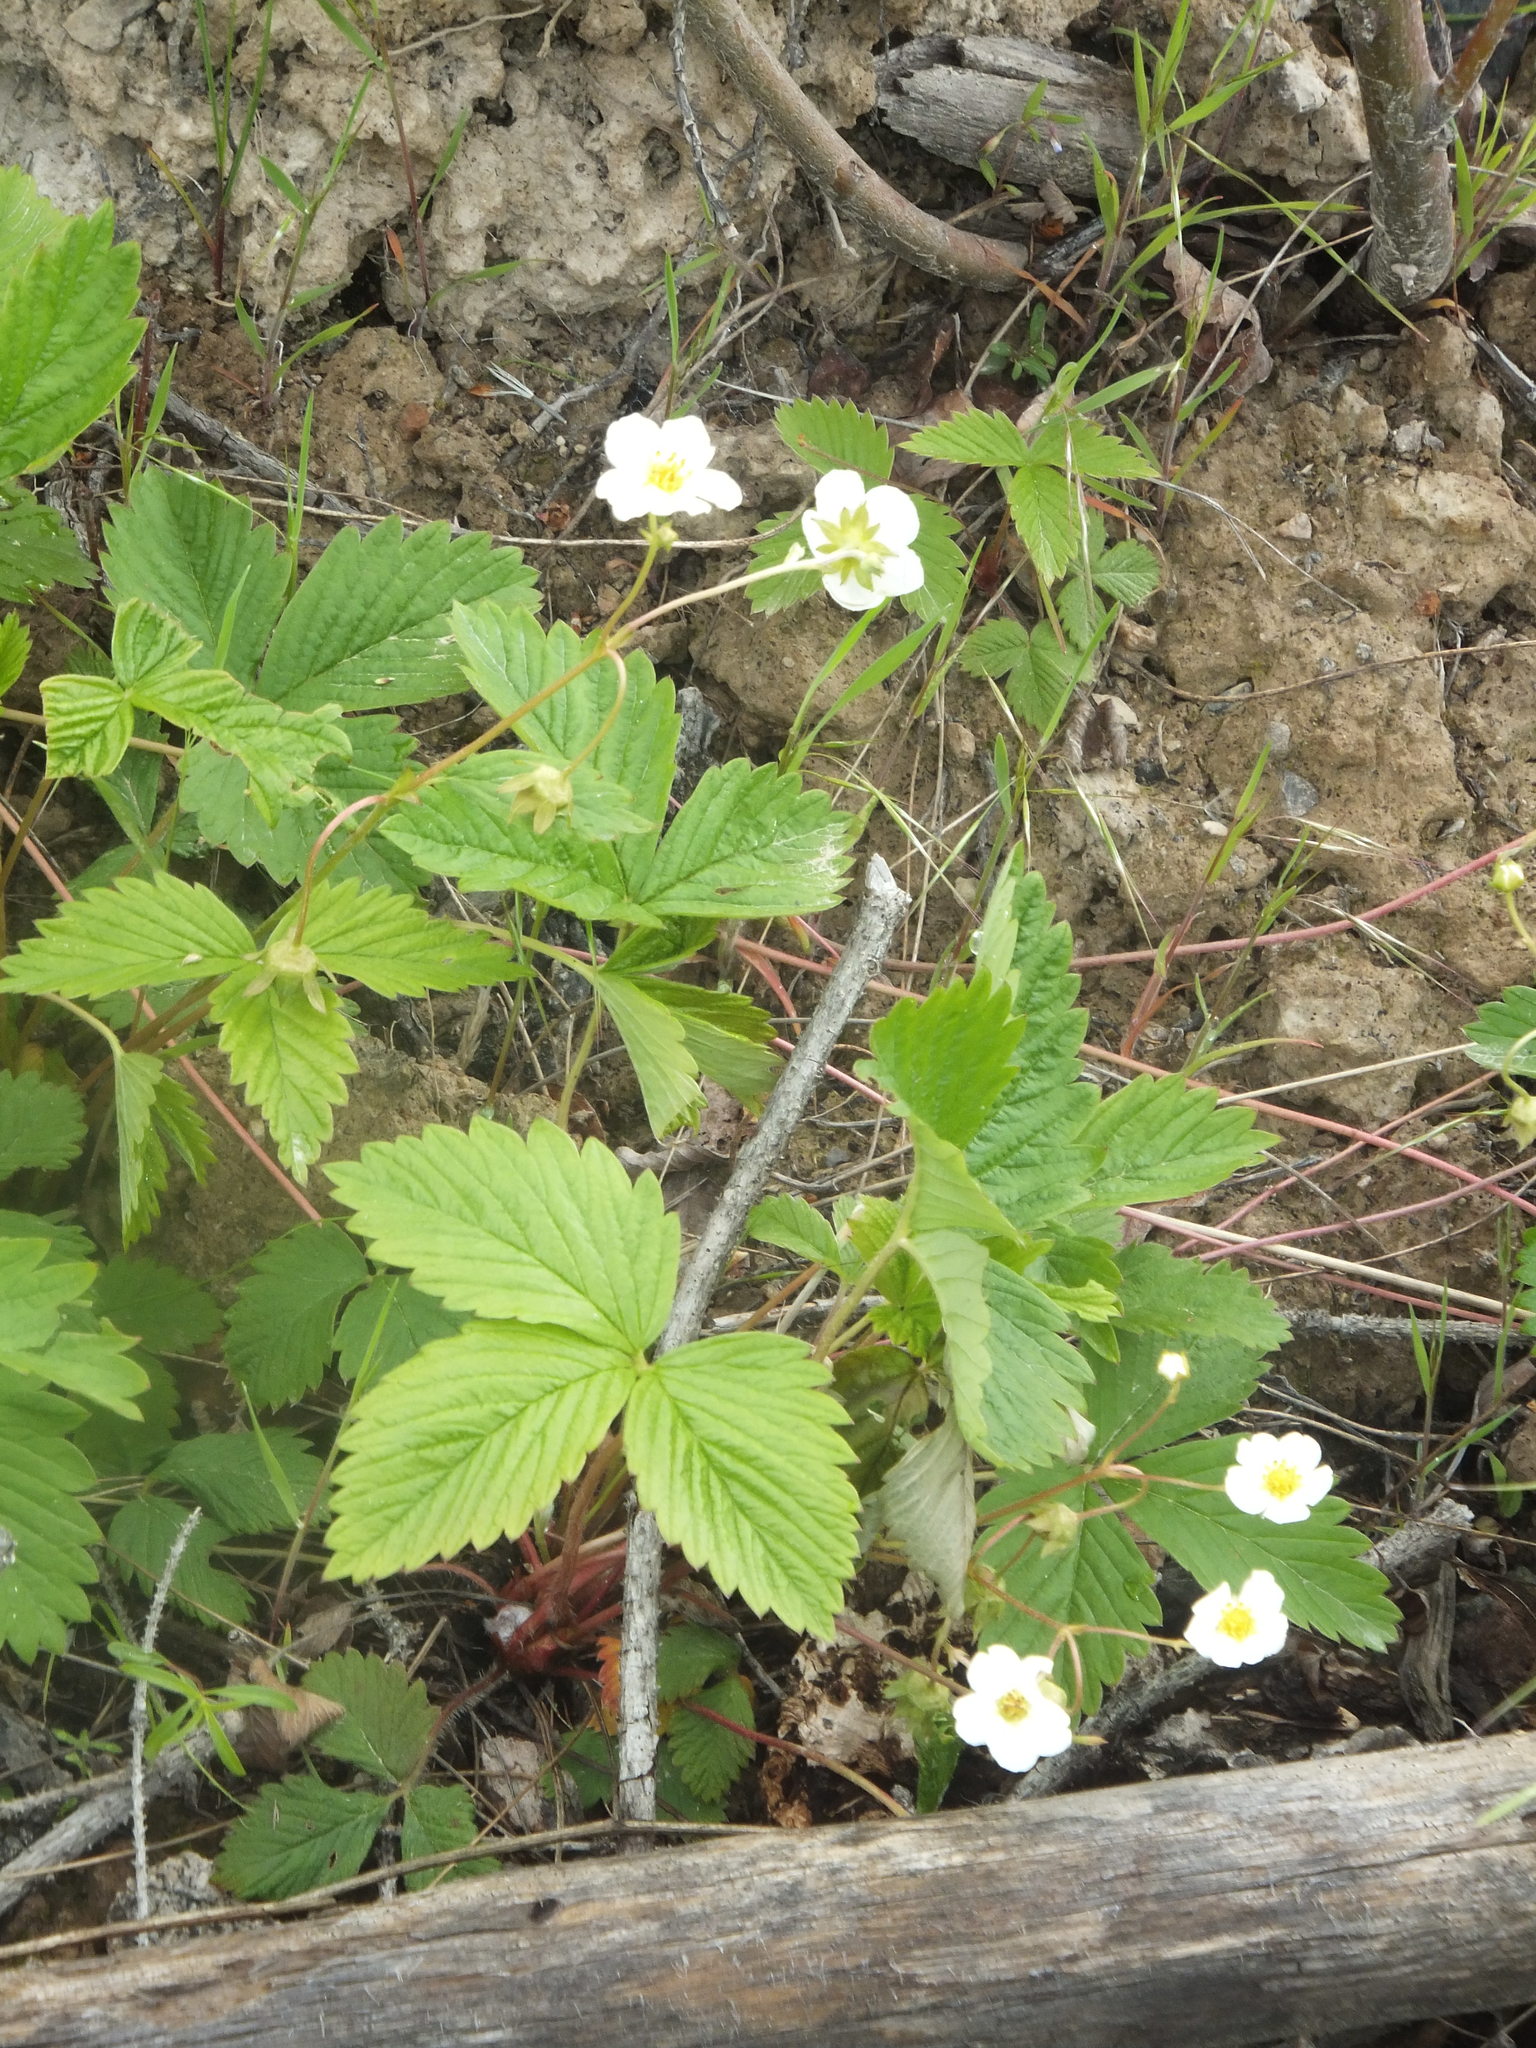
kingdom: Plantae
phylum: Tracheophyta
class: Magnoliopsida
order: Rosales
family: Rosaceae
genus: Fragaria
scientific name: Fragaria vesca
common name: Wild strawberry
